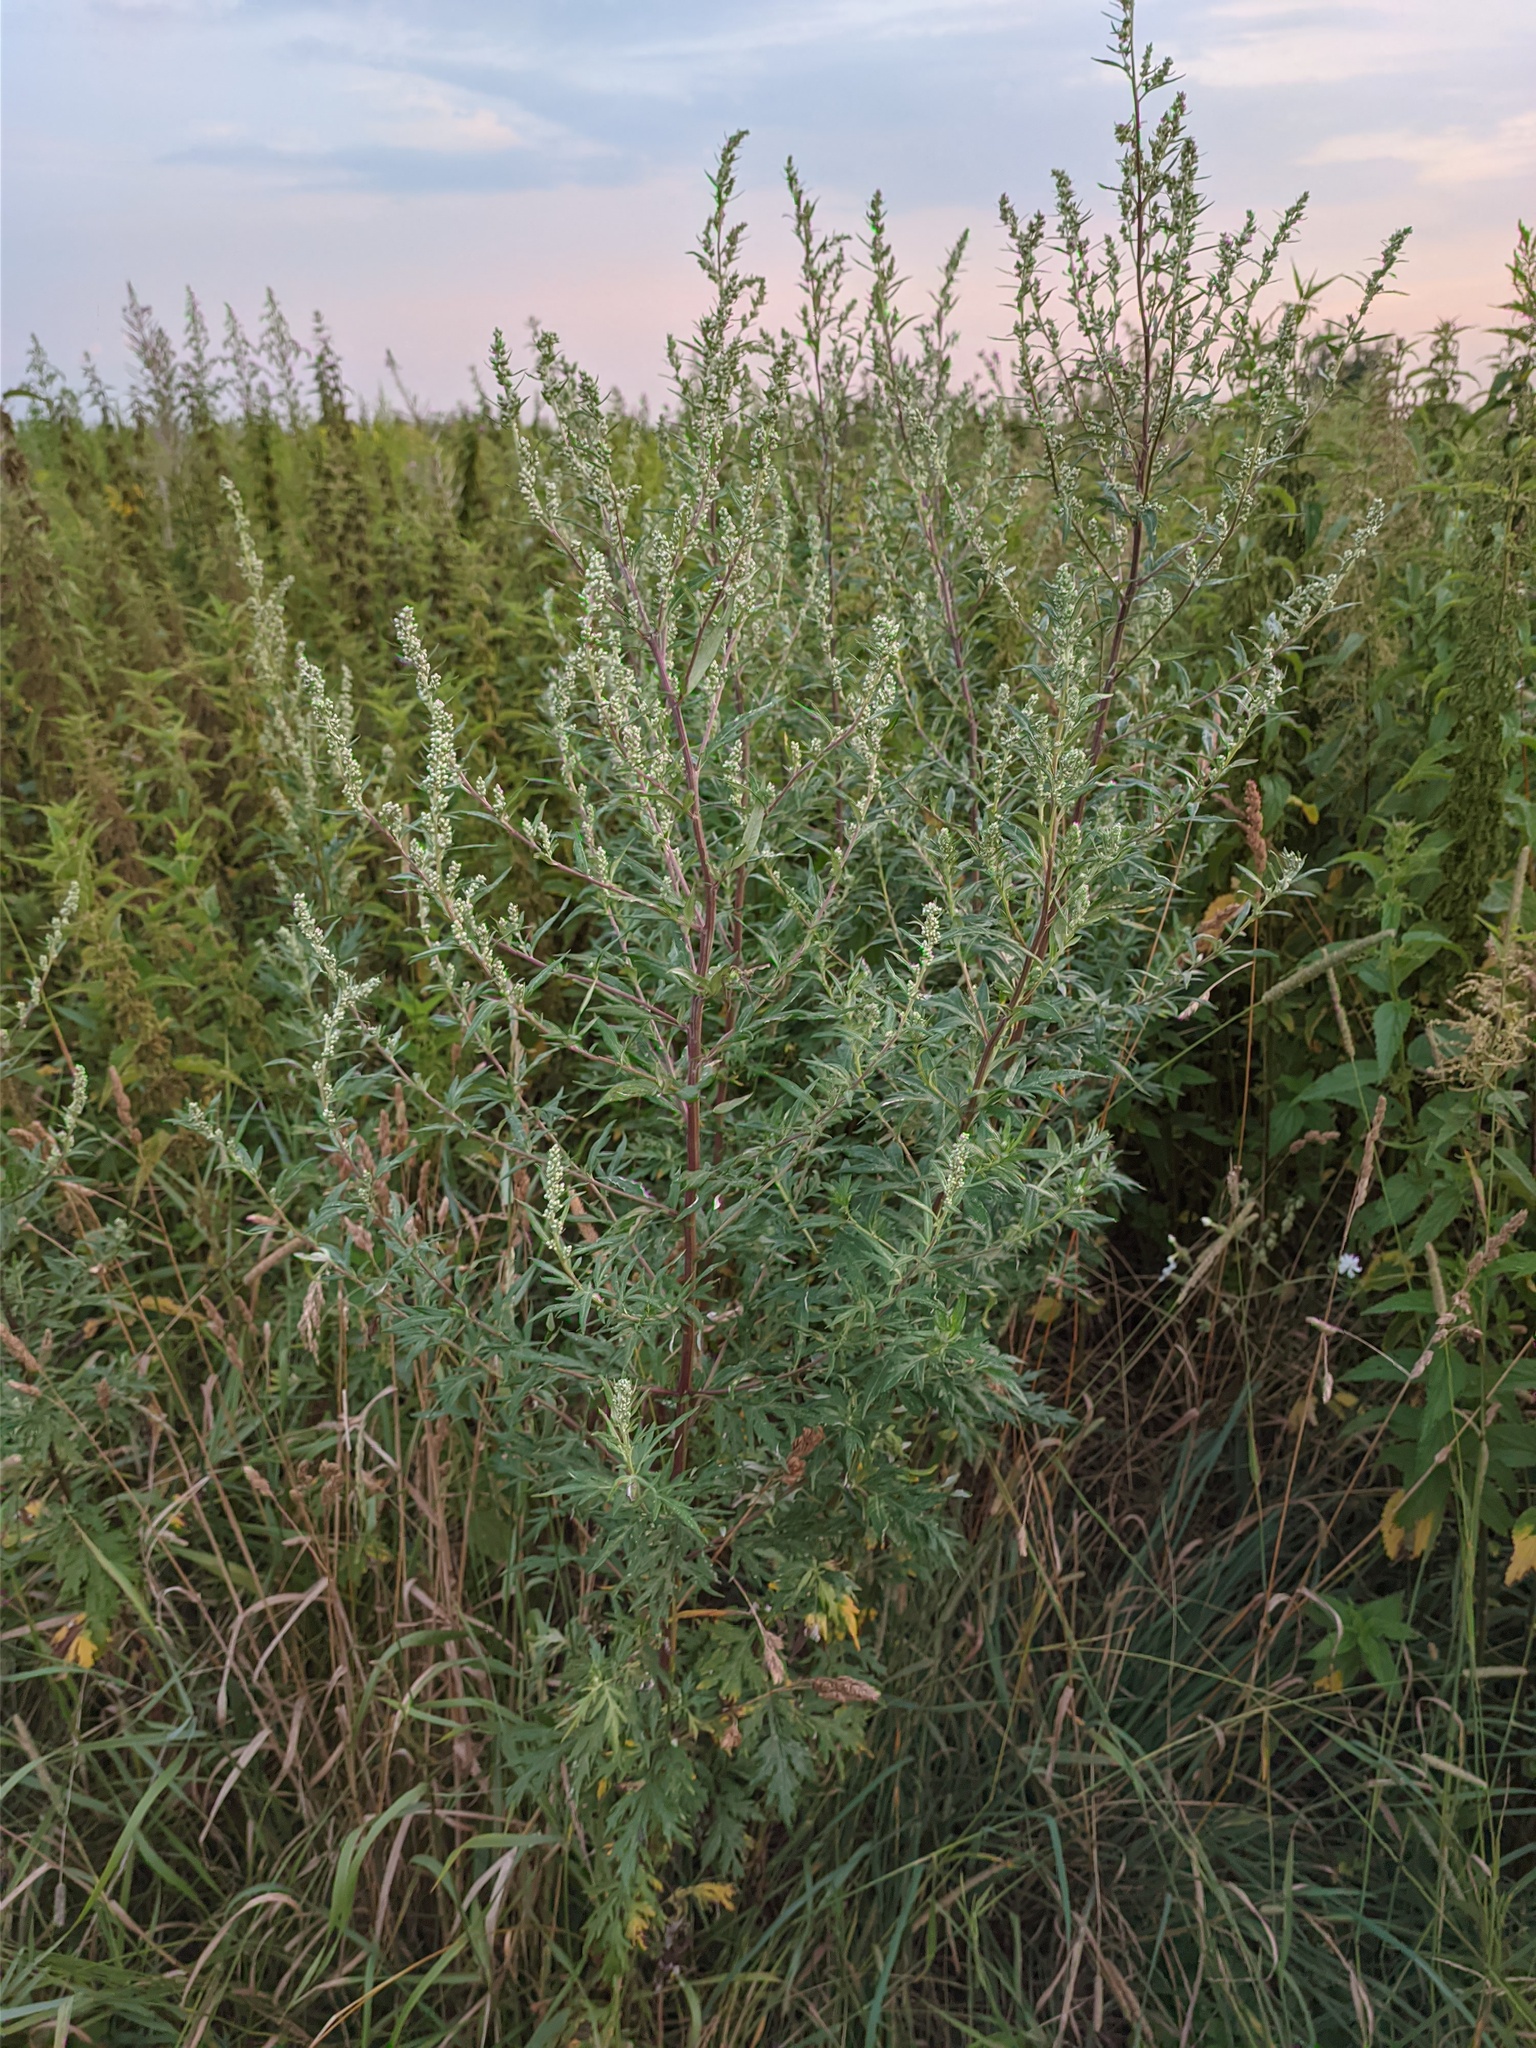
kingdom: Plantae
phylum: Tracheophyta
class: Magnoliopsida
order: Asterales
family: Asteraceae
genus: Artemisia
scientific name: Artemisia vulgaris
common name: Mugwort
